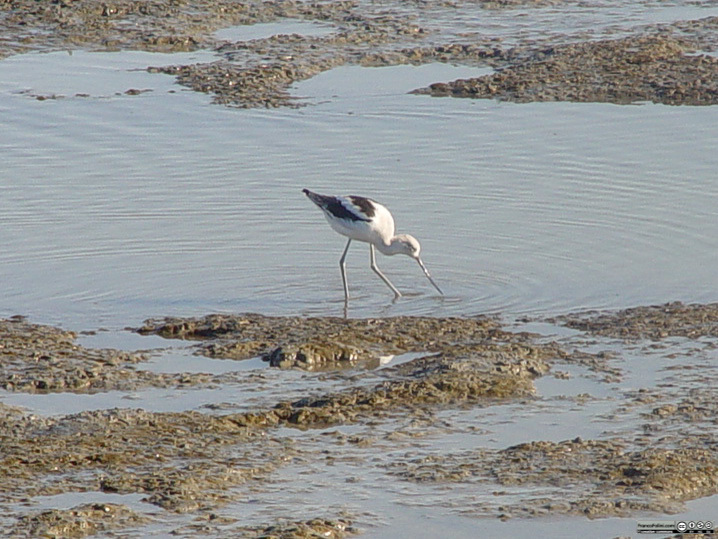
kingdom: Animalia
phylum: Chordata
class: Aves
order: Charadriiformes
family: Recurvirostridae
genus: Recurvirostra
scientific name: Recurvirostra americana
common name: American avocet
